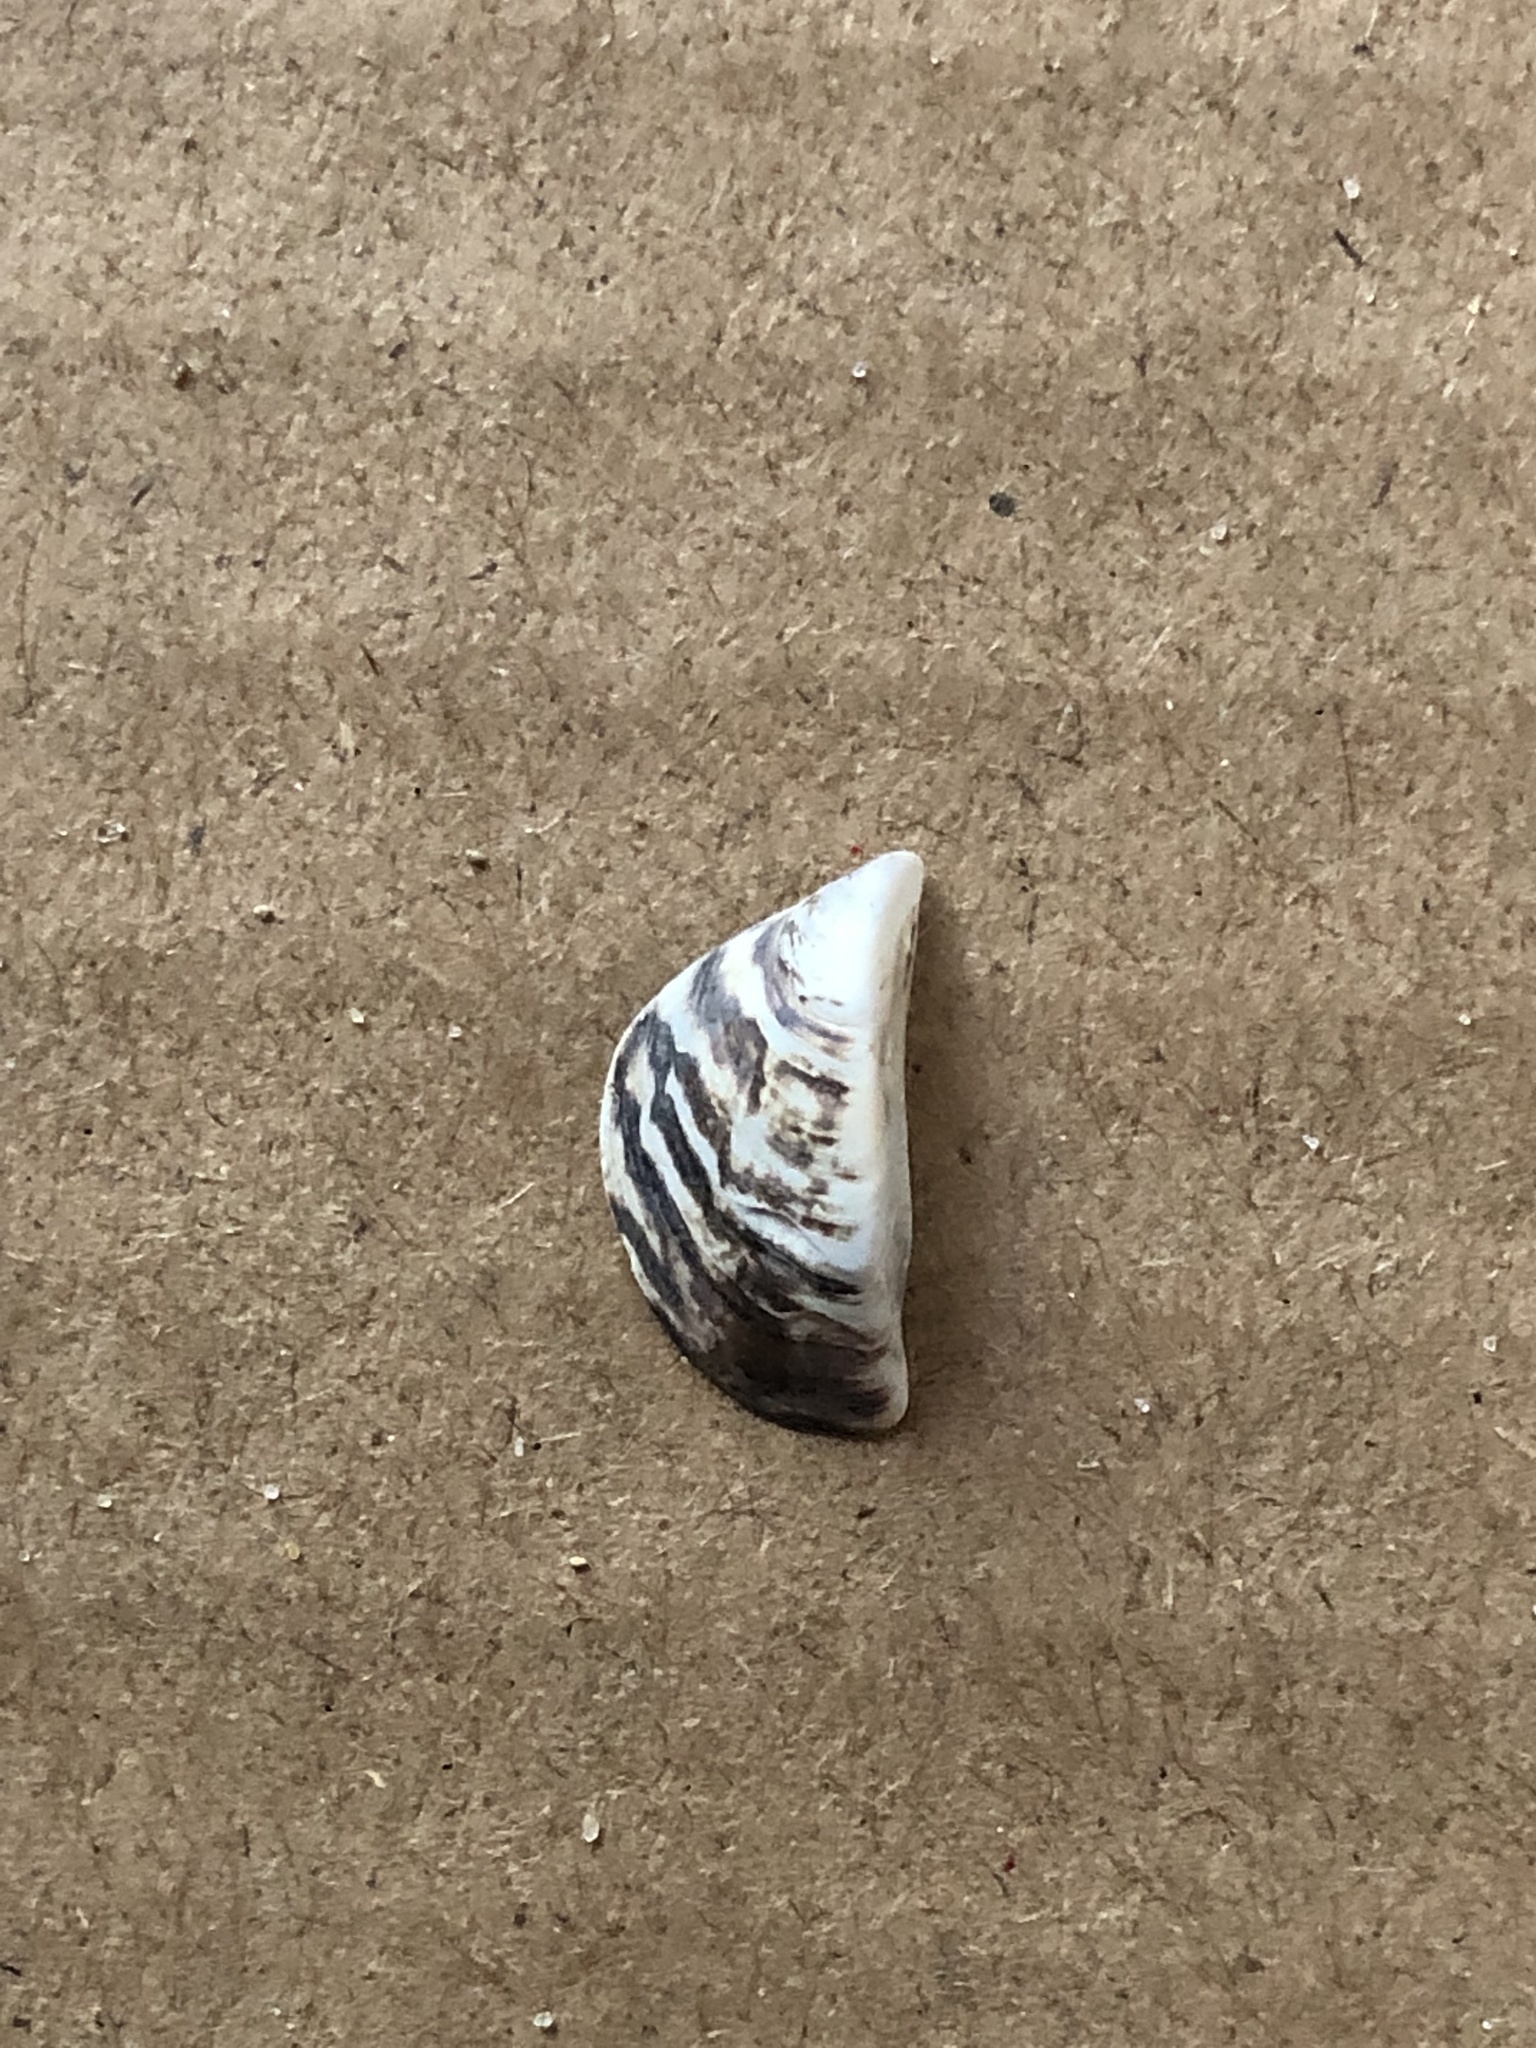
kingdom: Animalia
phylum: Mollusca
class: Bivalvia
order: Myida
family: Dreissenidae
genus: Dreissena
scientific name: Dreissena polymorpha
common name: Zebra mussel
